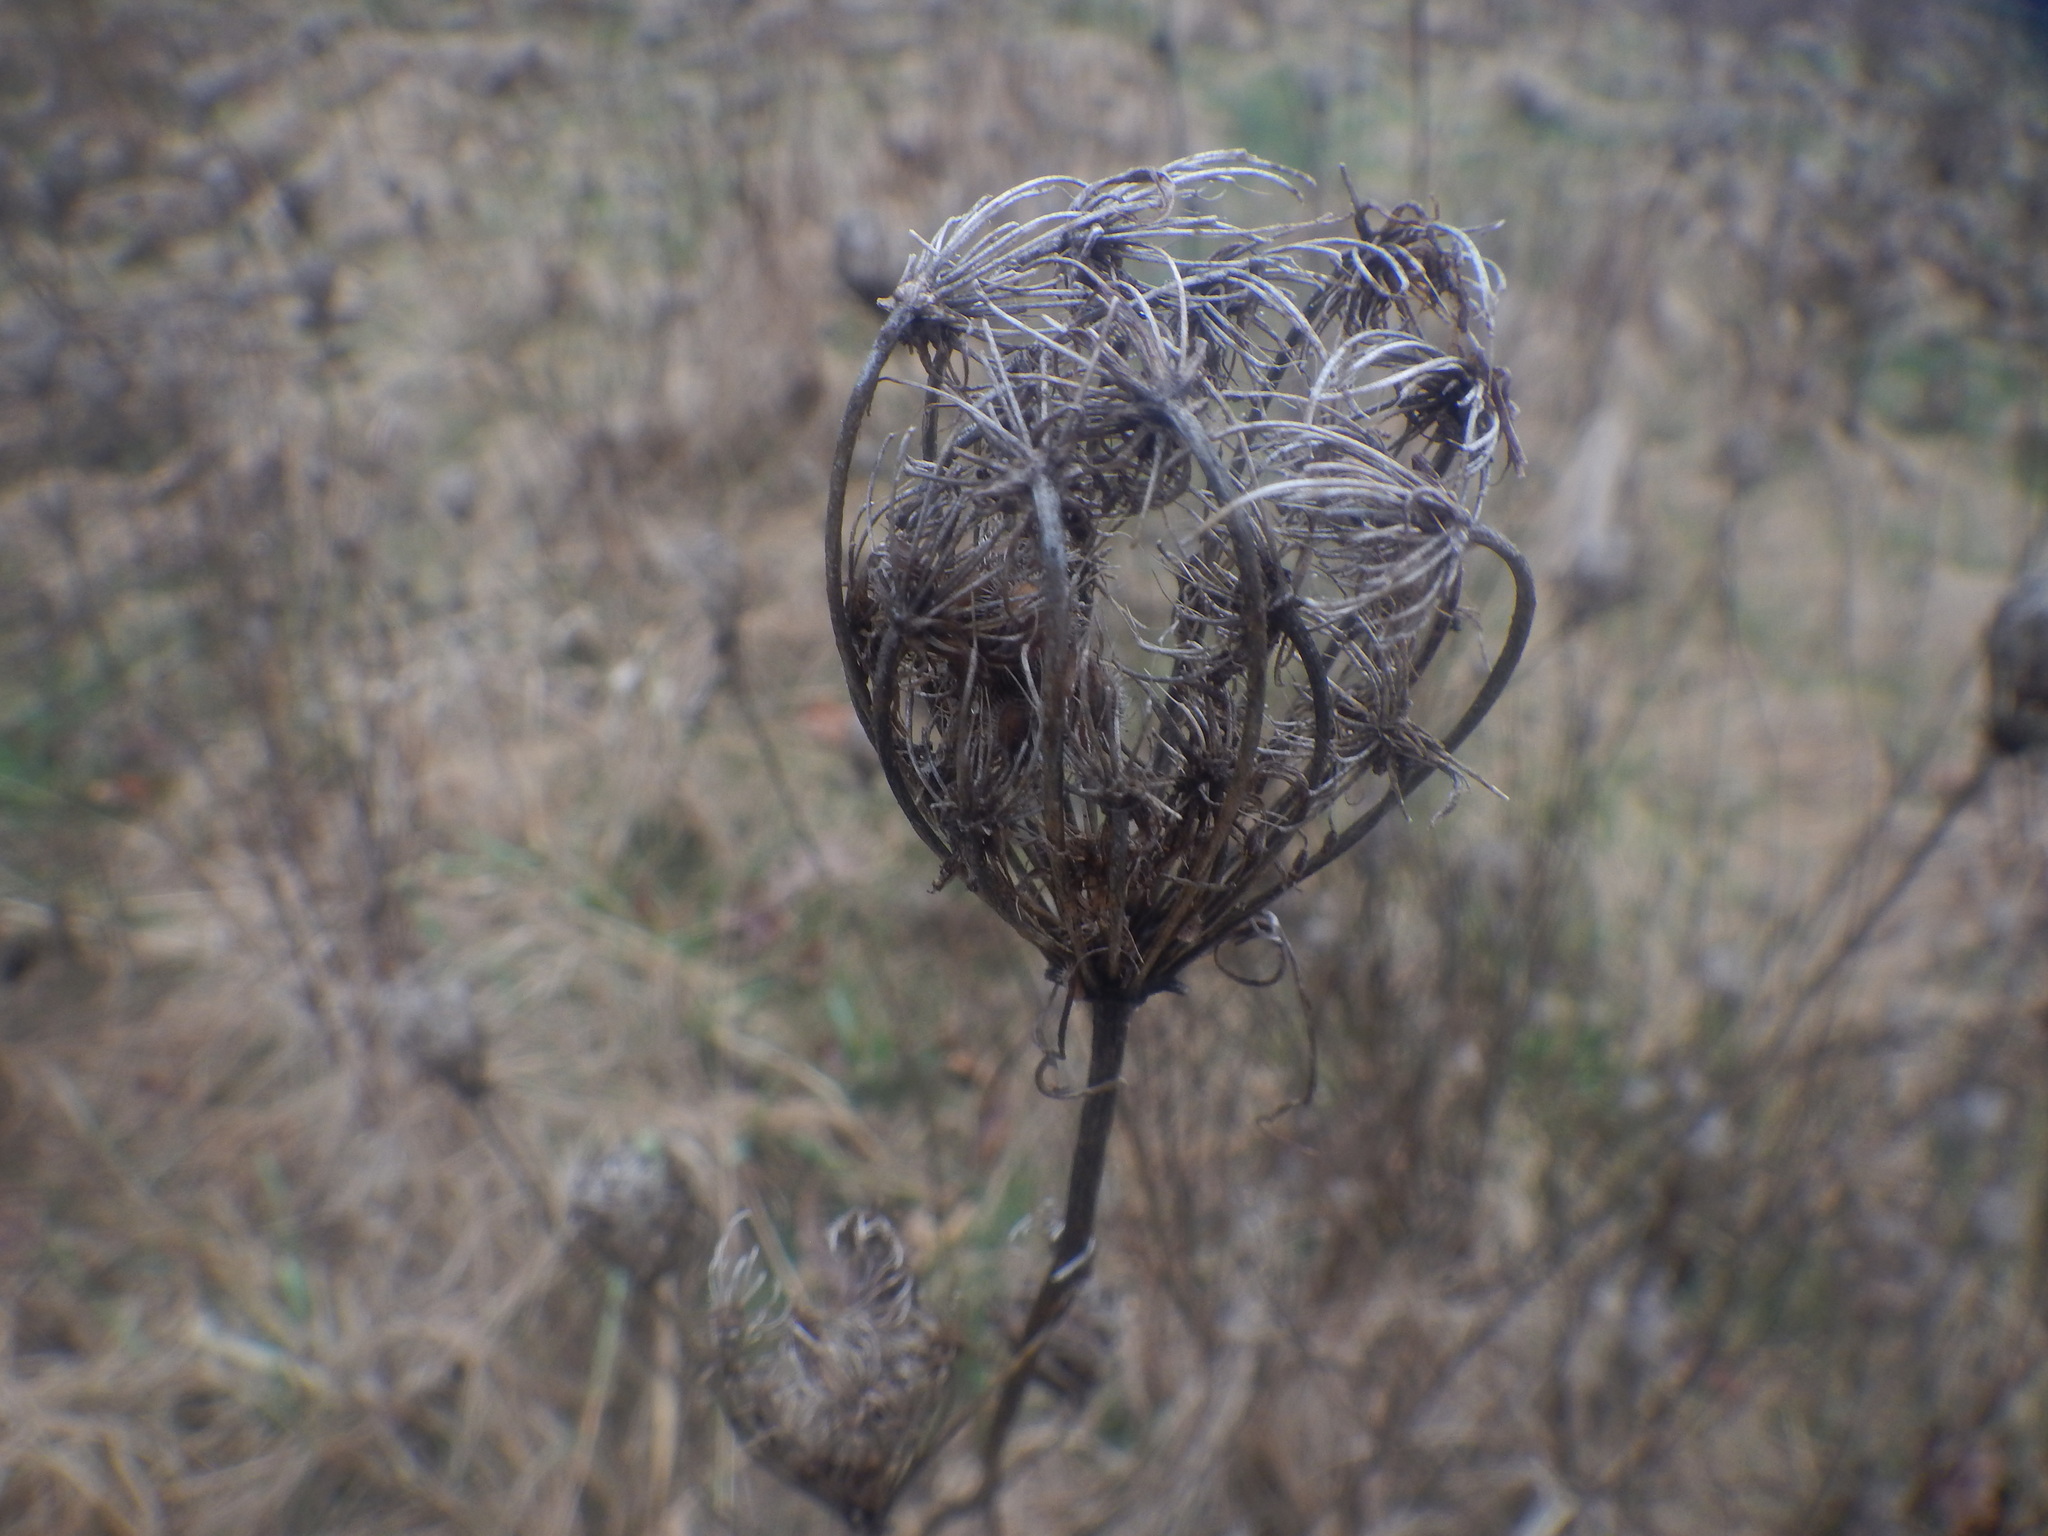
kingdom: Plantae
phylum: Tracheophyta
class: Magnoliopsida
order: Apiales
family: Apiaceae
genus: Daucus
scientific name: Daucus carota
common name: Wild carrot
